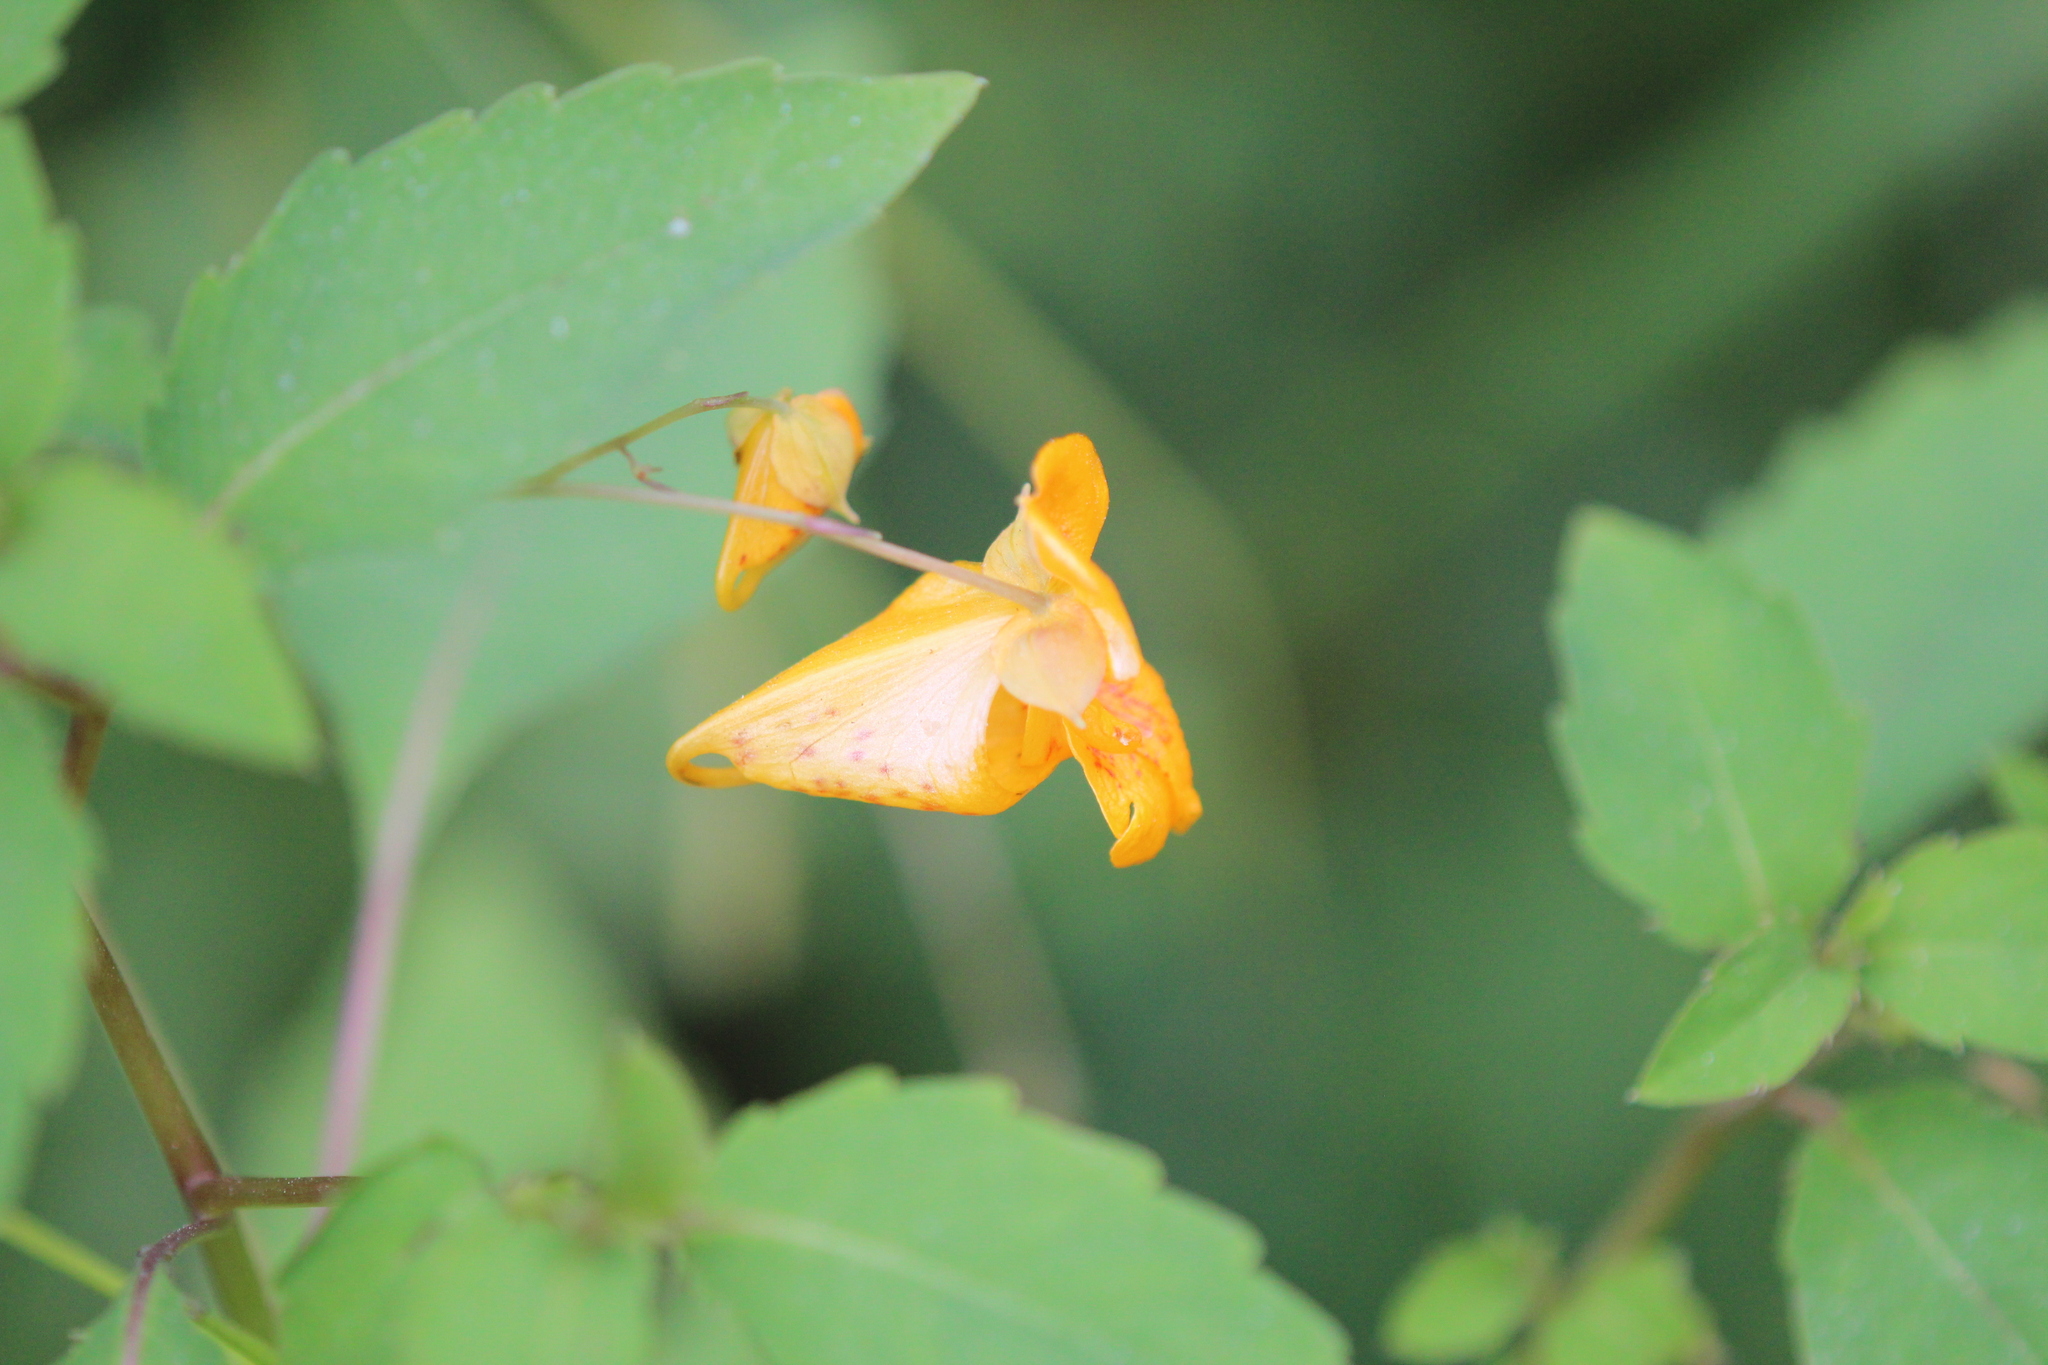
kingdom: Plantae
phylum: Tracheophyta
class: Magnoliopsida
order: Ericales
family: Balsaminaceae
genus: Impatiens
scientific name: Impatiens capensis
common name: Orange balsam
